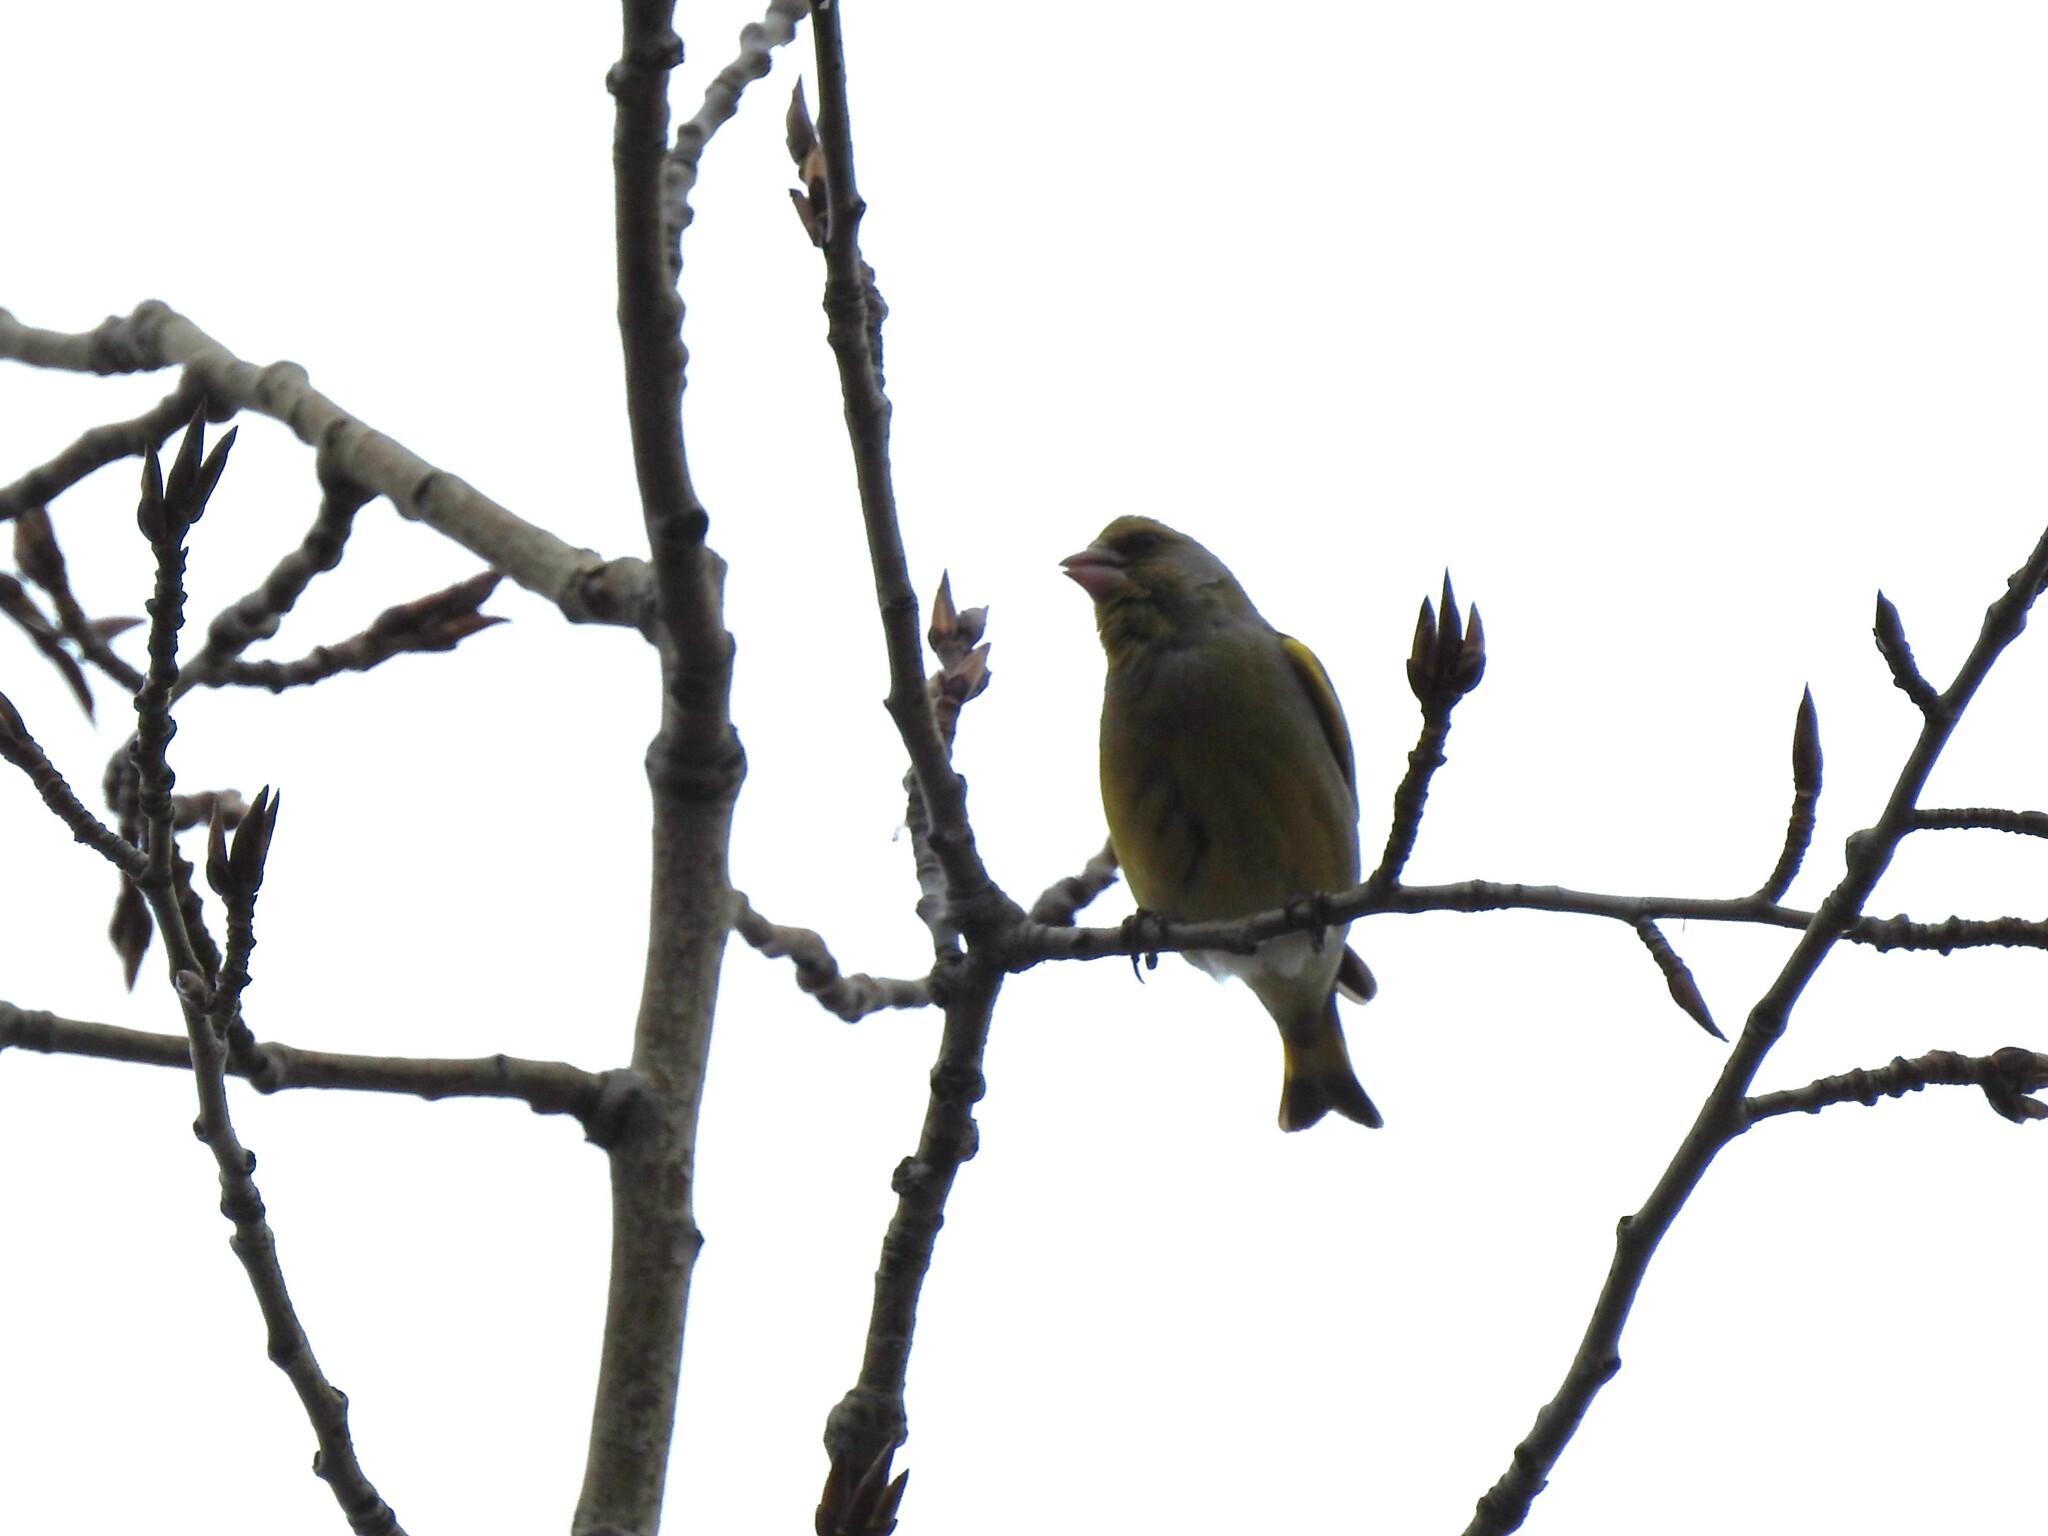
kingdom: Plantae
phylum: Tracheophyta
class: Liliopsida
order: Poales
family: Poaceae
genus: Chloris
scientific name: Chloris chloris
